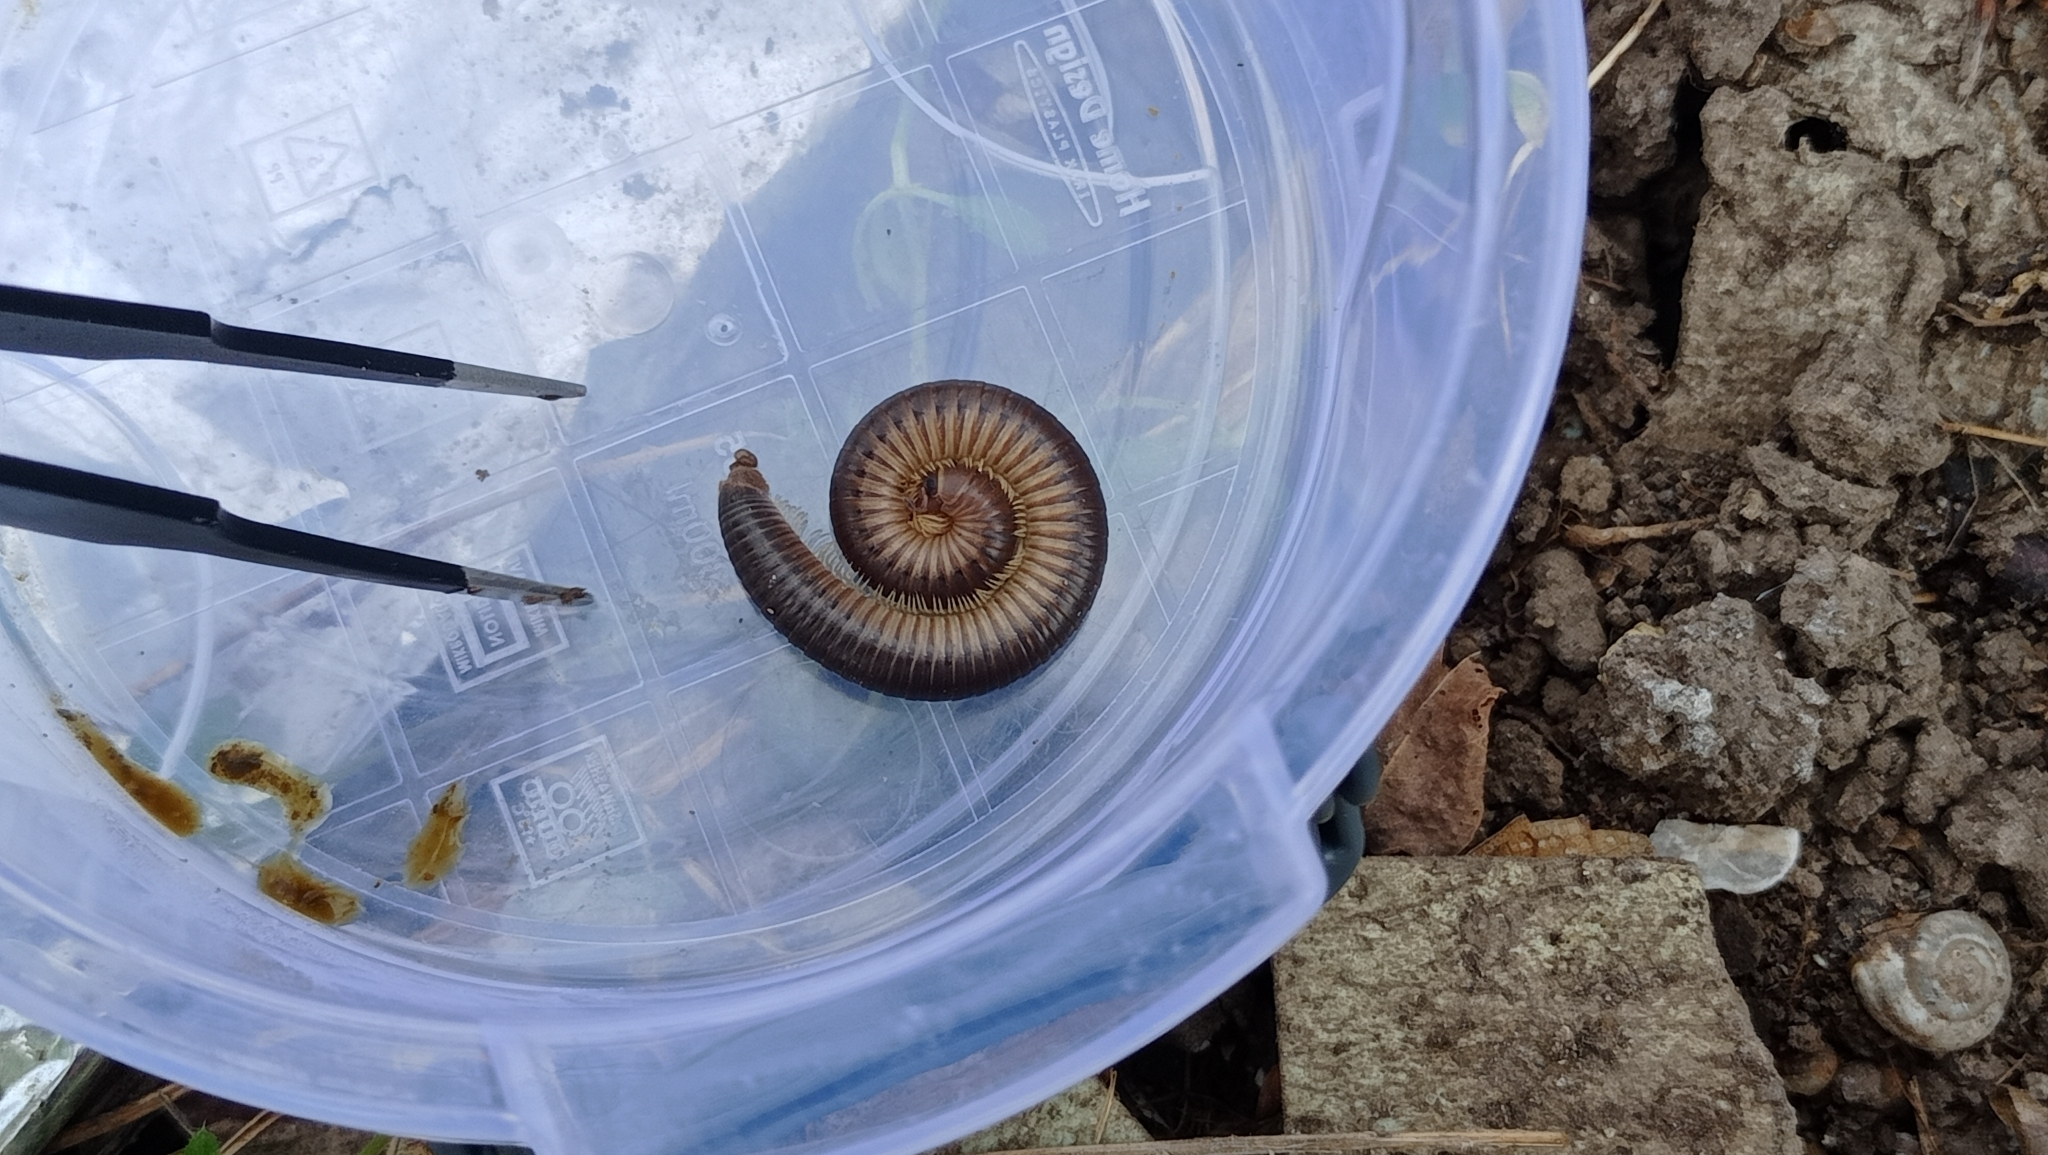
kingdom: Animalia
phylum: Arthropoda
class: Diplopoda
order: Julida
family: Julidae
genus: Pachyiulus
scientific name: Pachyiulus flavipes
